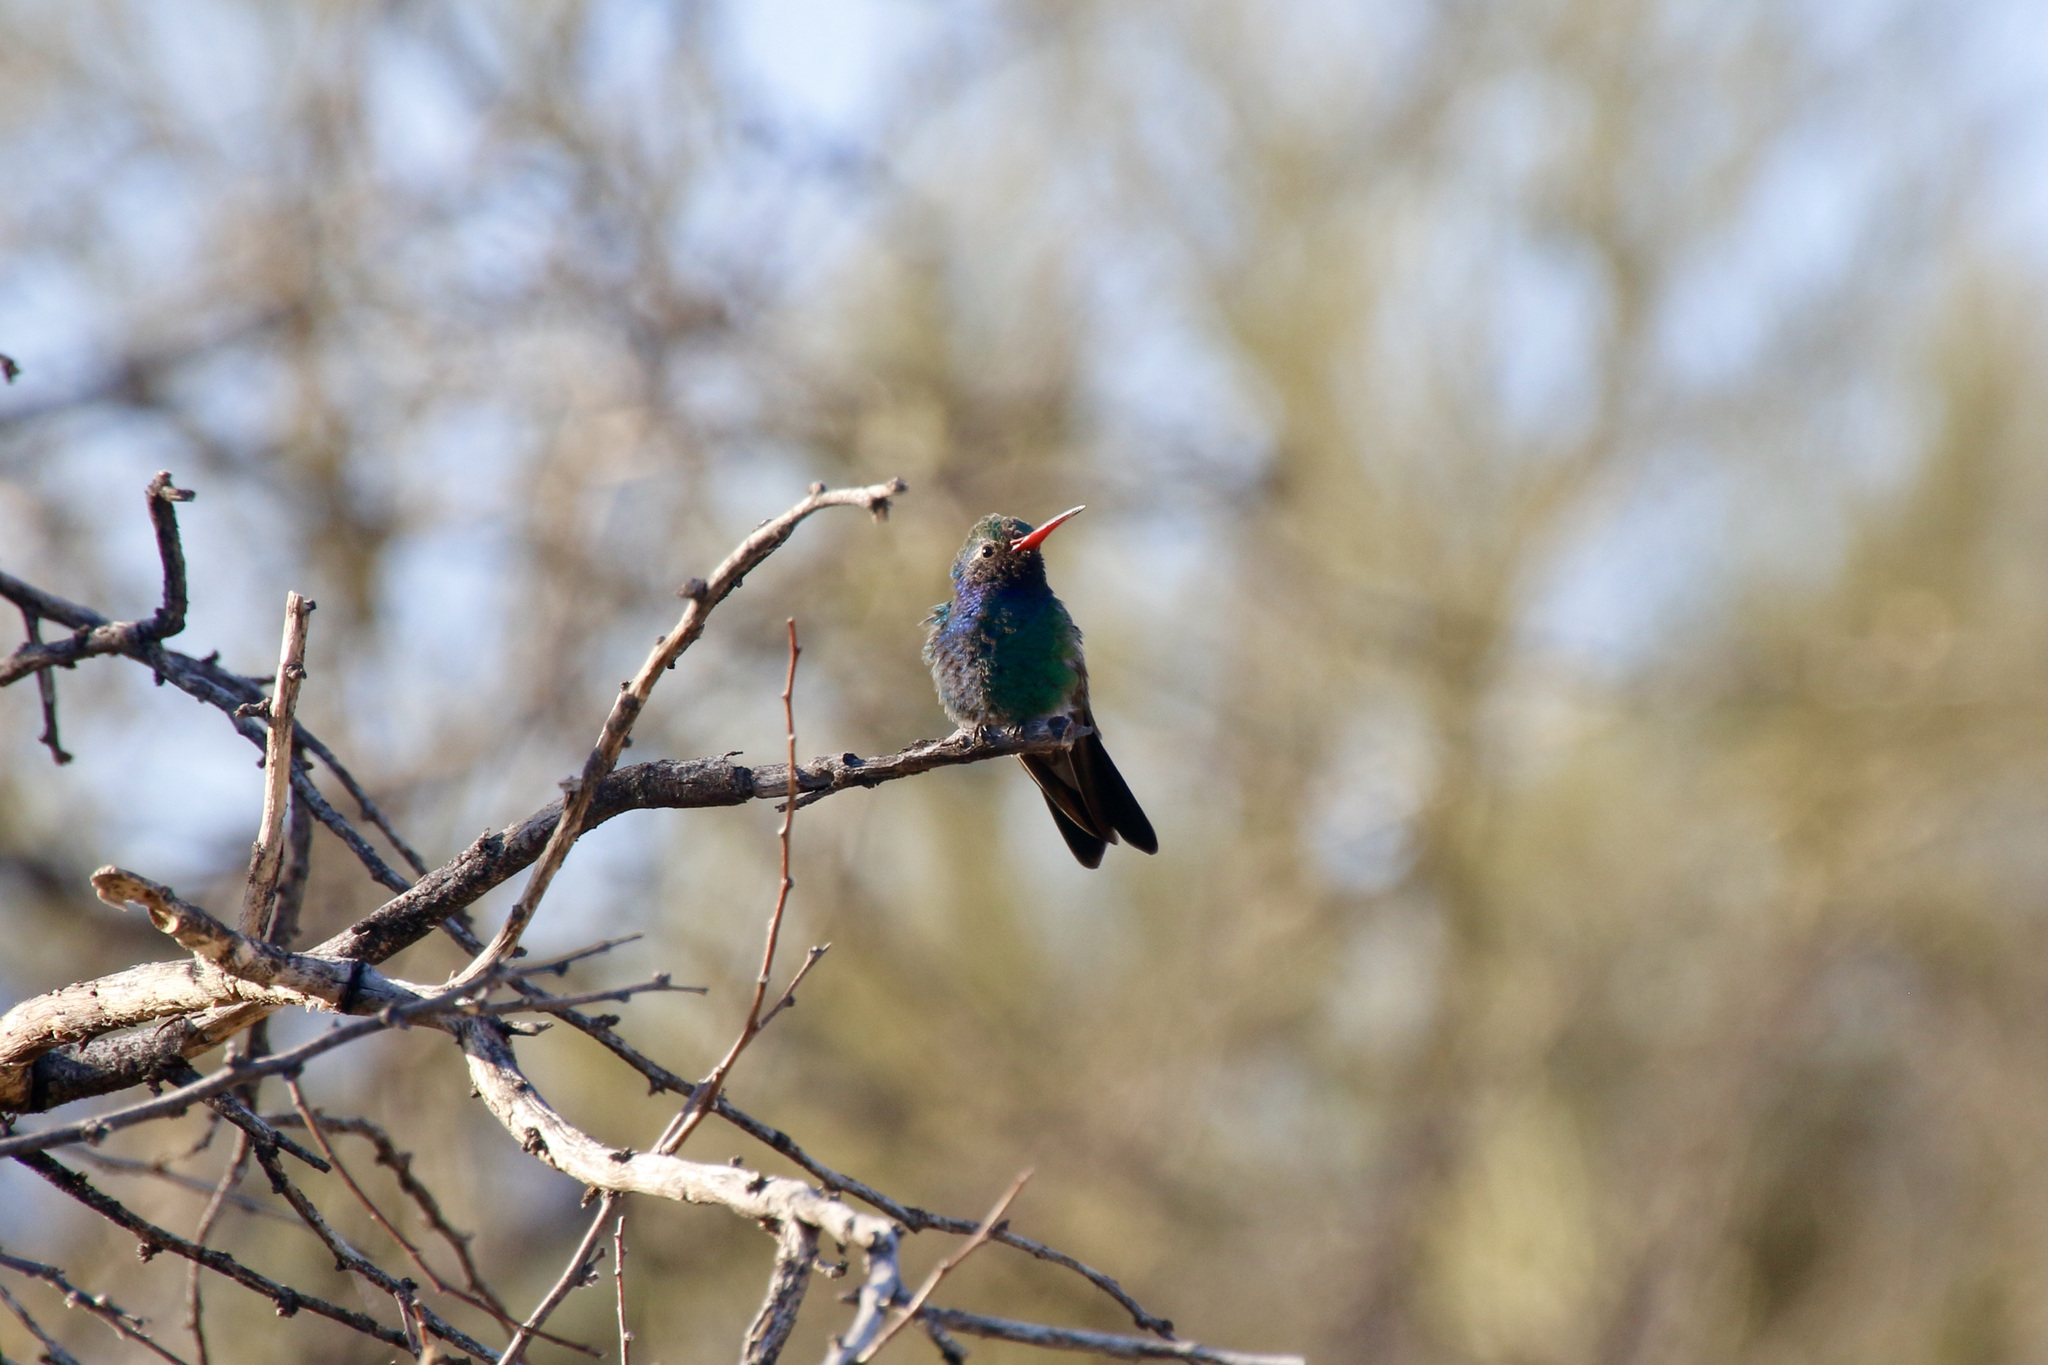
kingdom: Animalia
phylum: Chordata
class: Aves
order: Apodiformes
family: Trochilidae
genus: Cynanthus
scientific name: Cynanthus latirostris
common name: Broad-billed hummingbird
